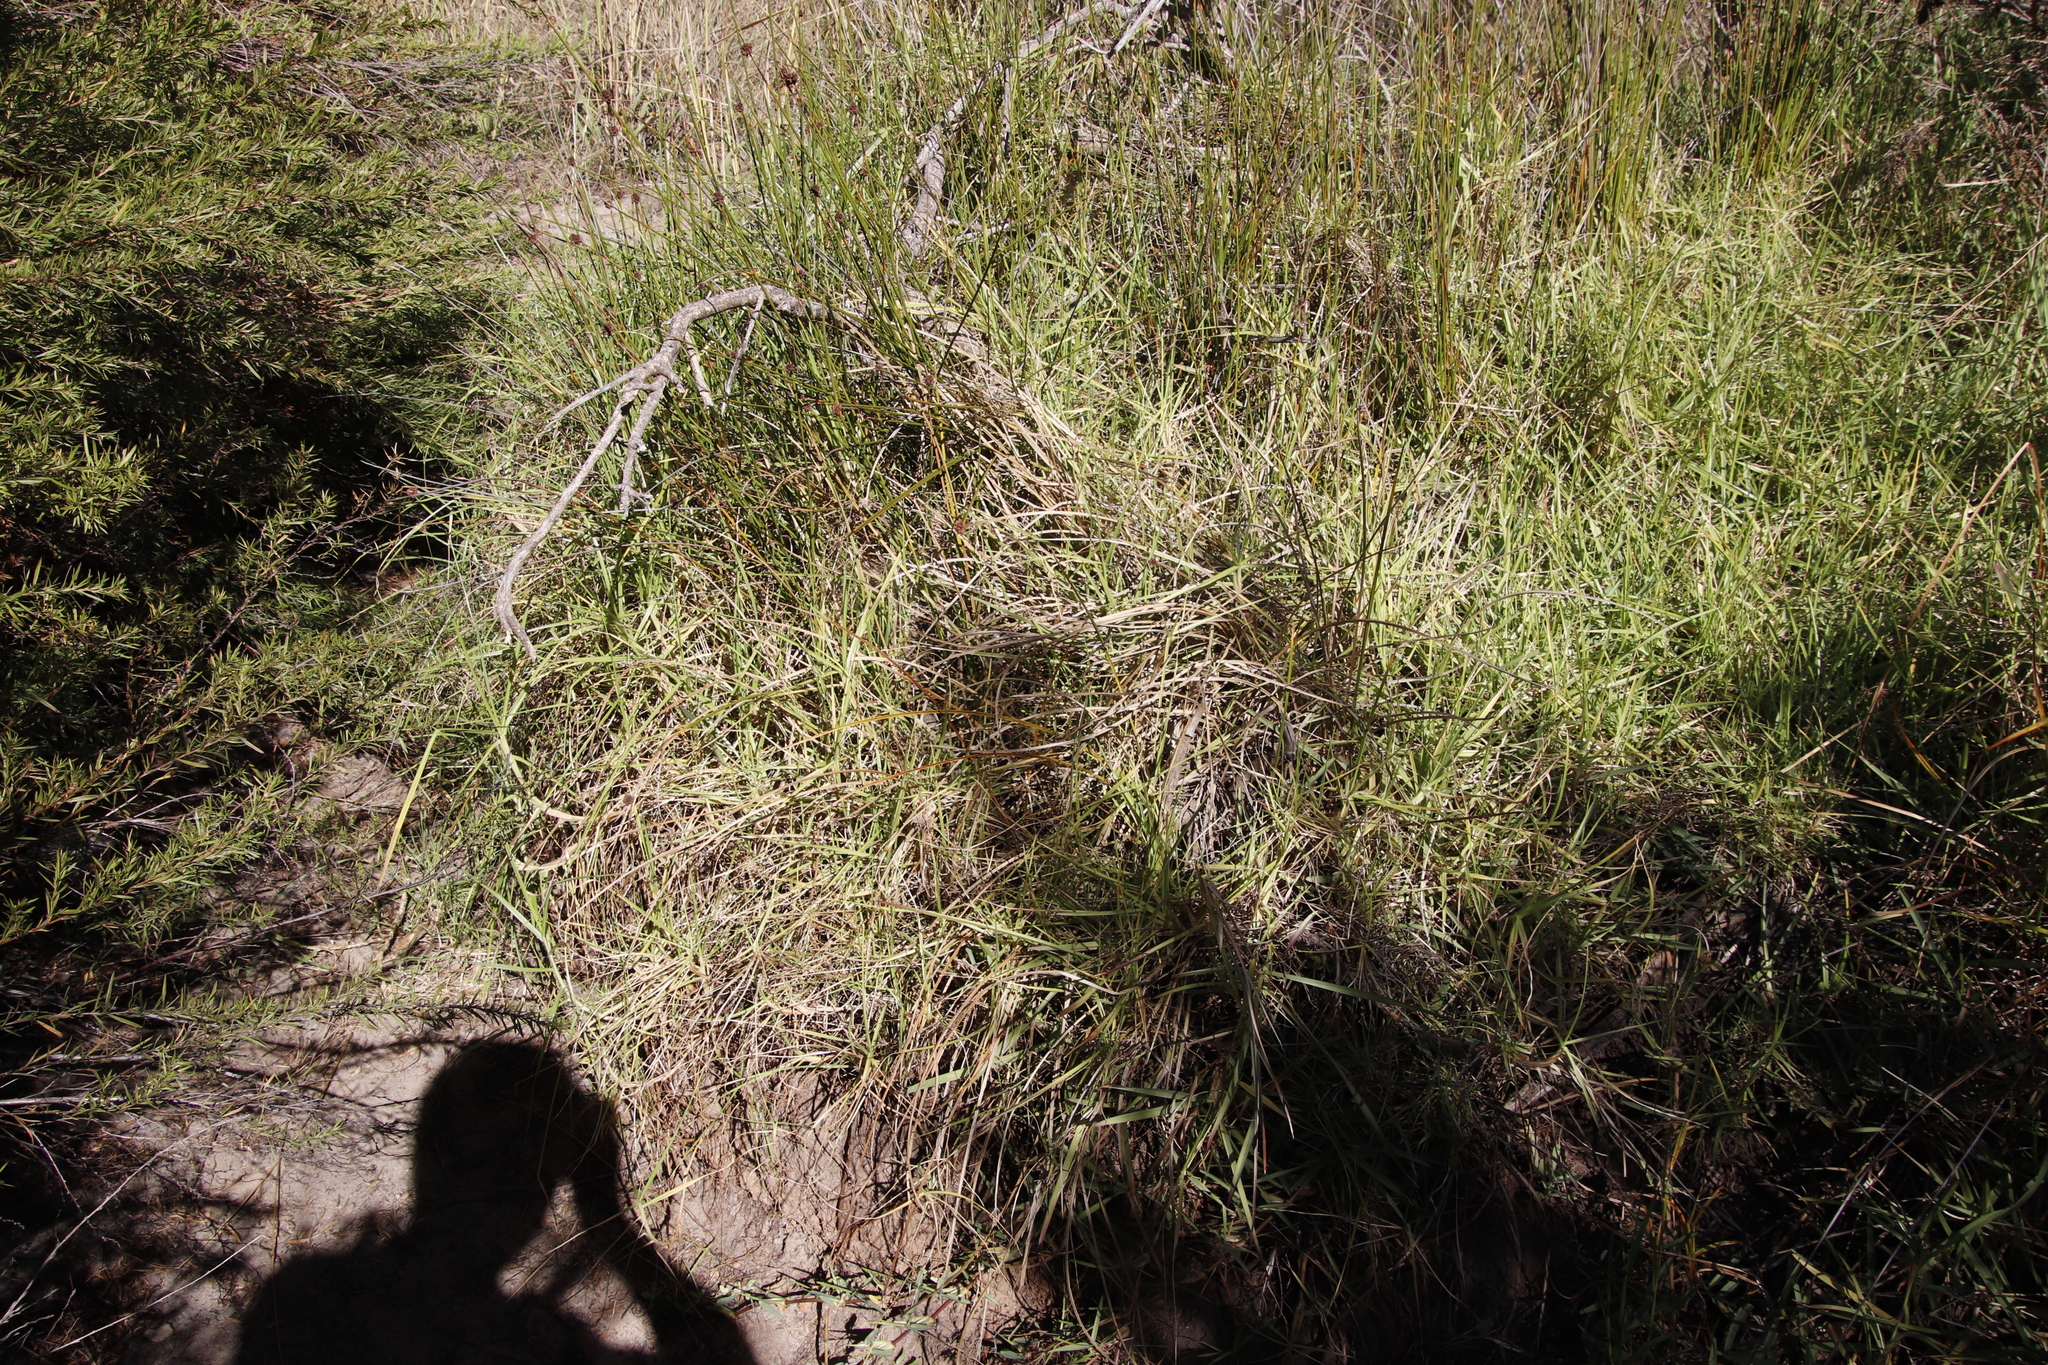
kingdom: Plantae
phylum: Tracheophyta
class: Liliopsida
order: Poales
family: Poaceae
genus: Cenchrus
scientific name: Cenchrus clandestinus
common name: Kikuyugrass
